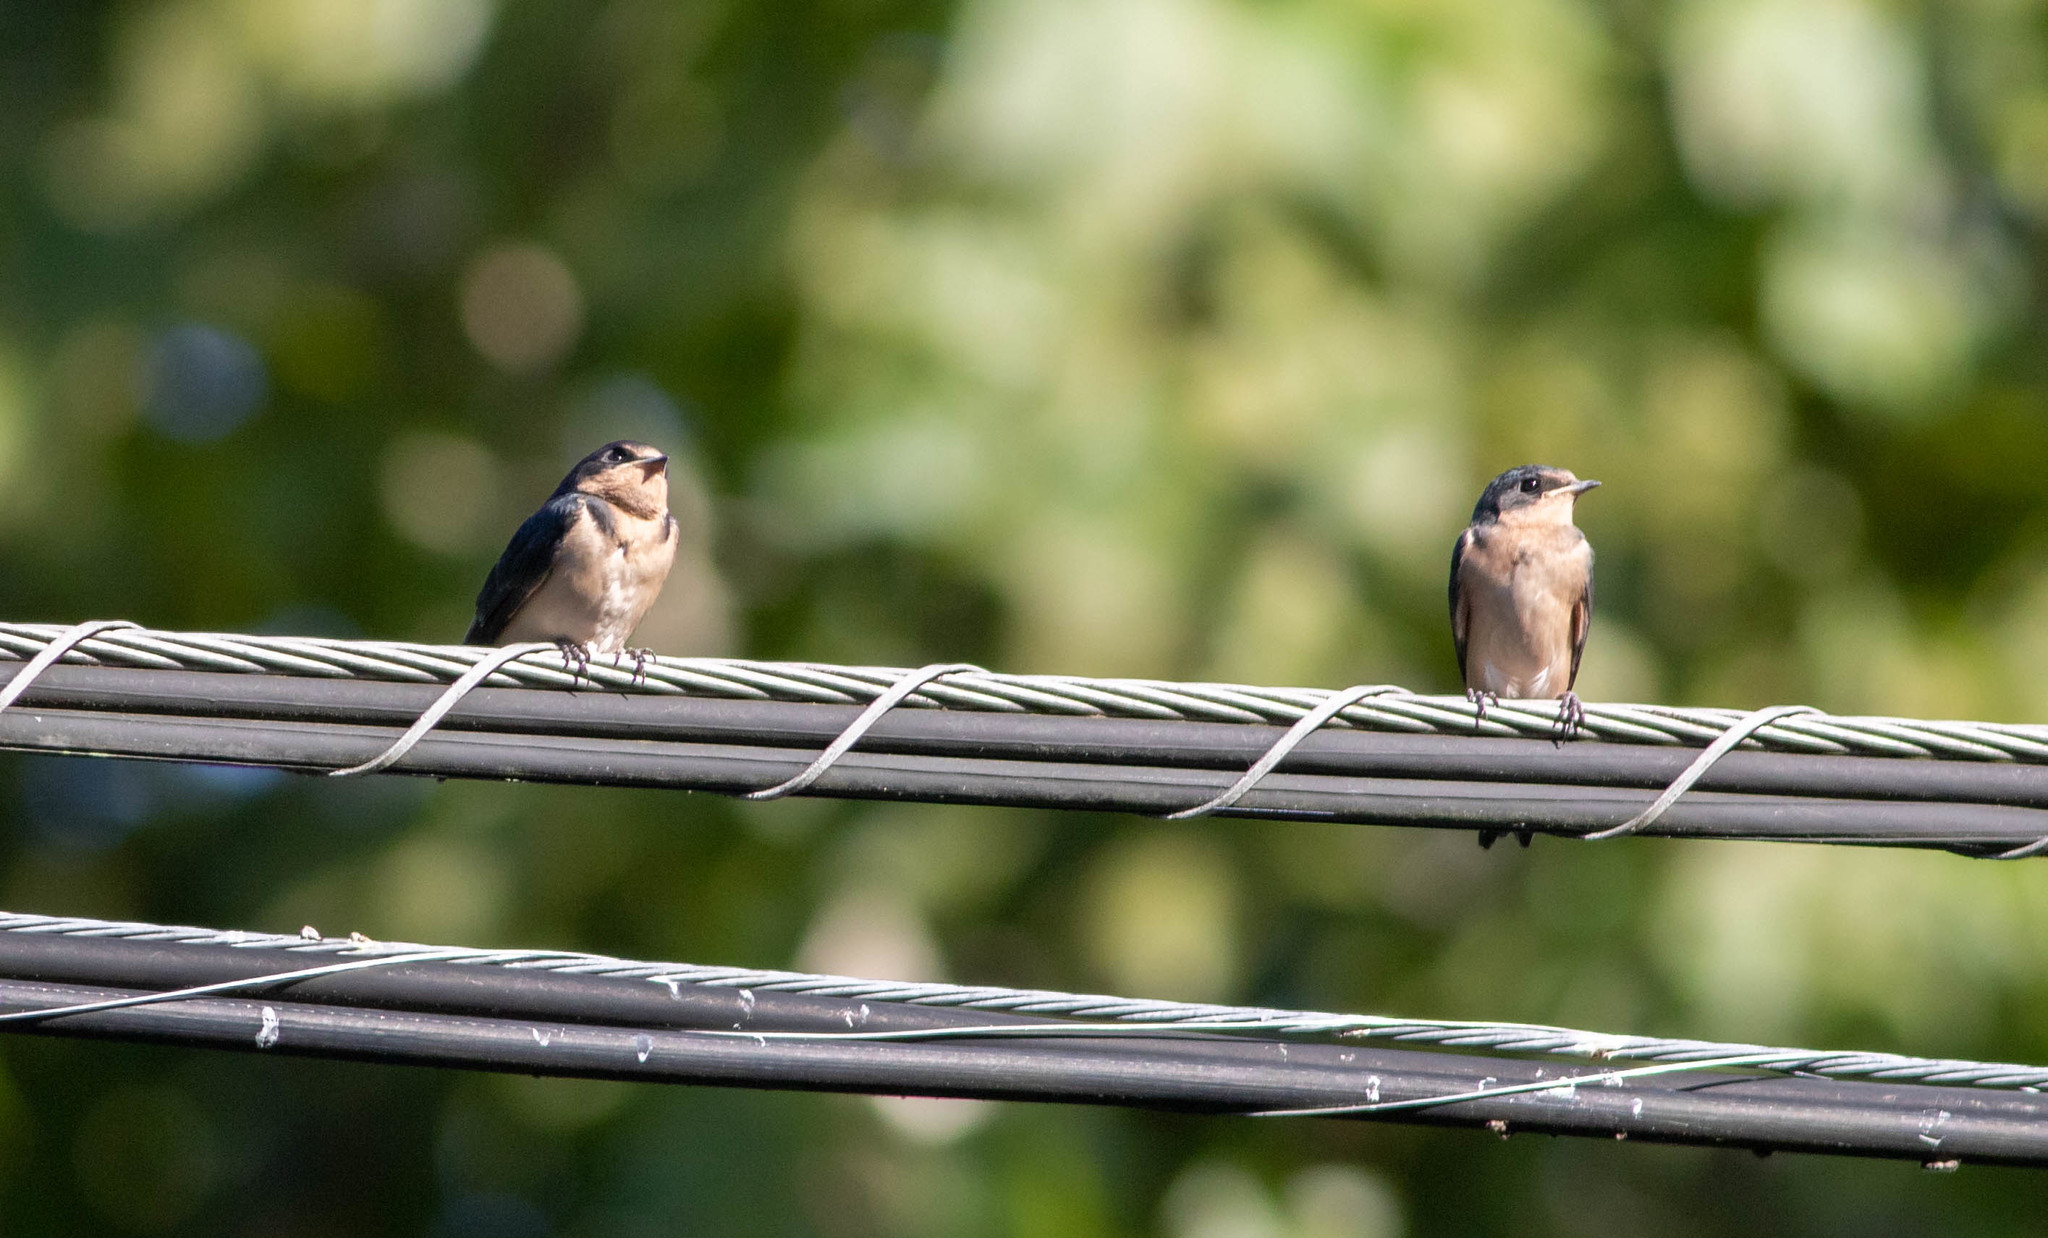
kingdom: Animalia
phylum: Chordata
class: Aves
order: Passeriformes
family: Hirundinidae
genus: Hirundo
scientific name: Hirundo rustica
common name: Barn swallow
